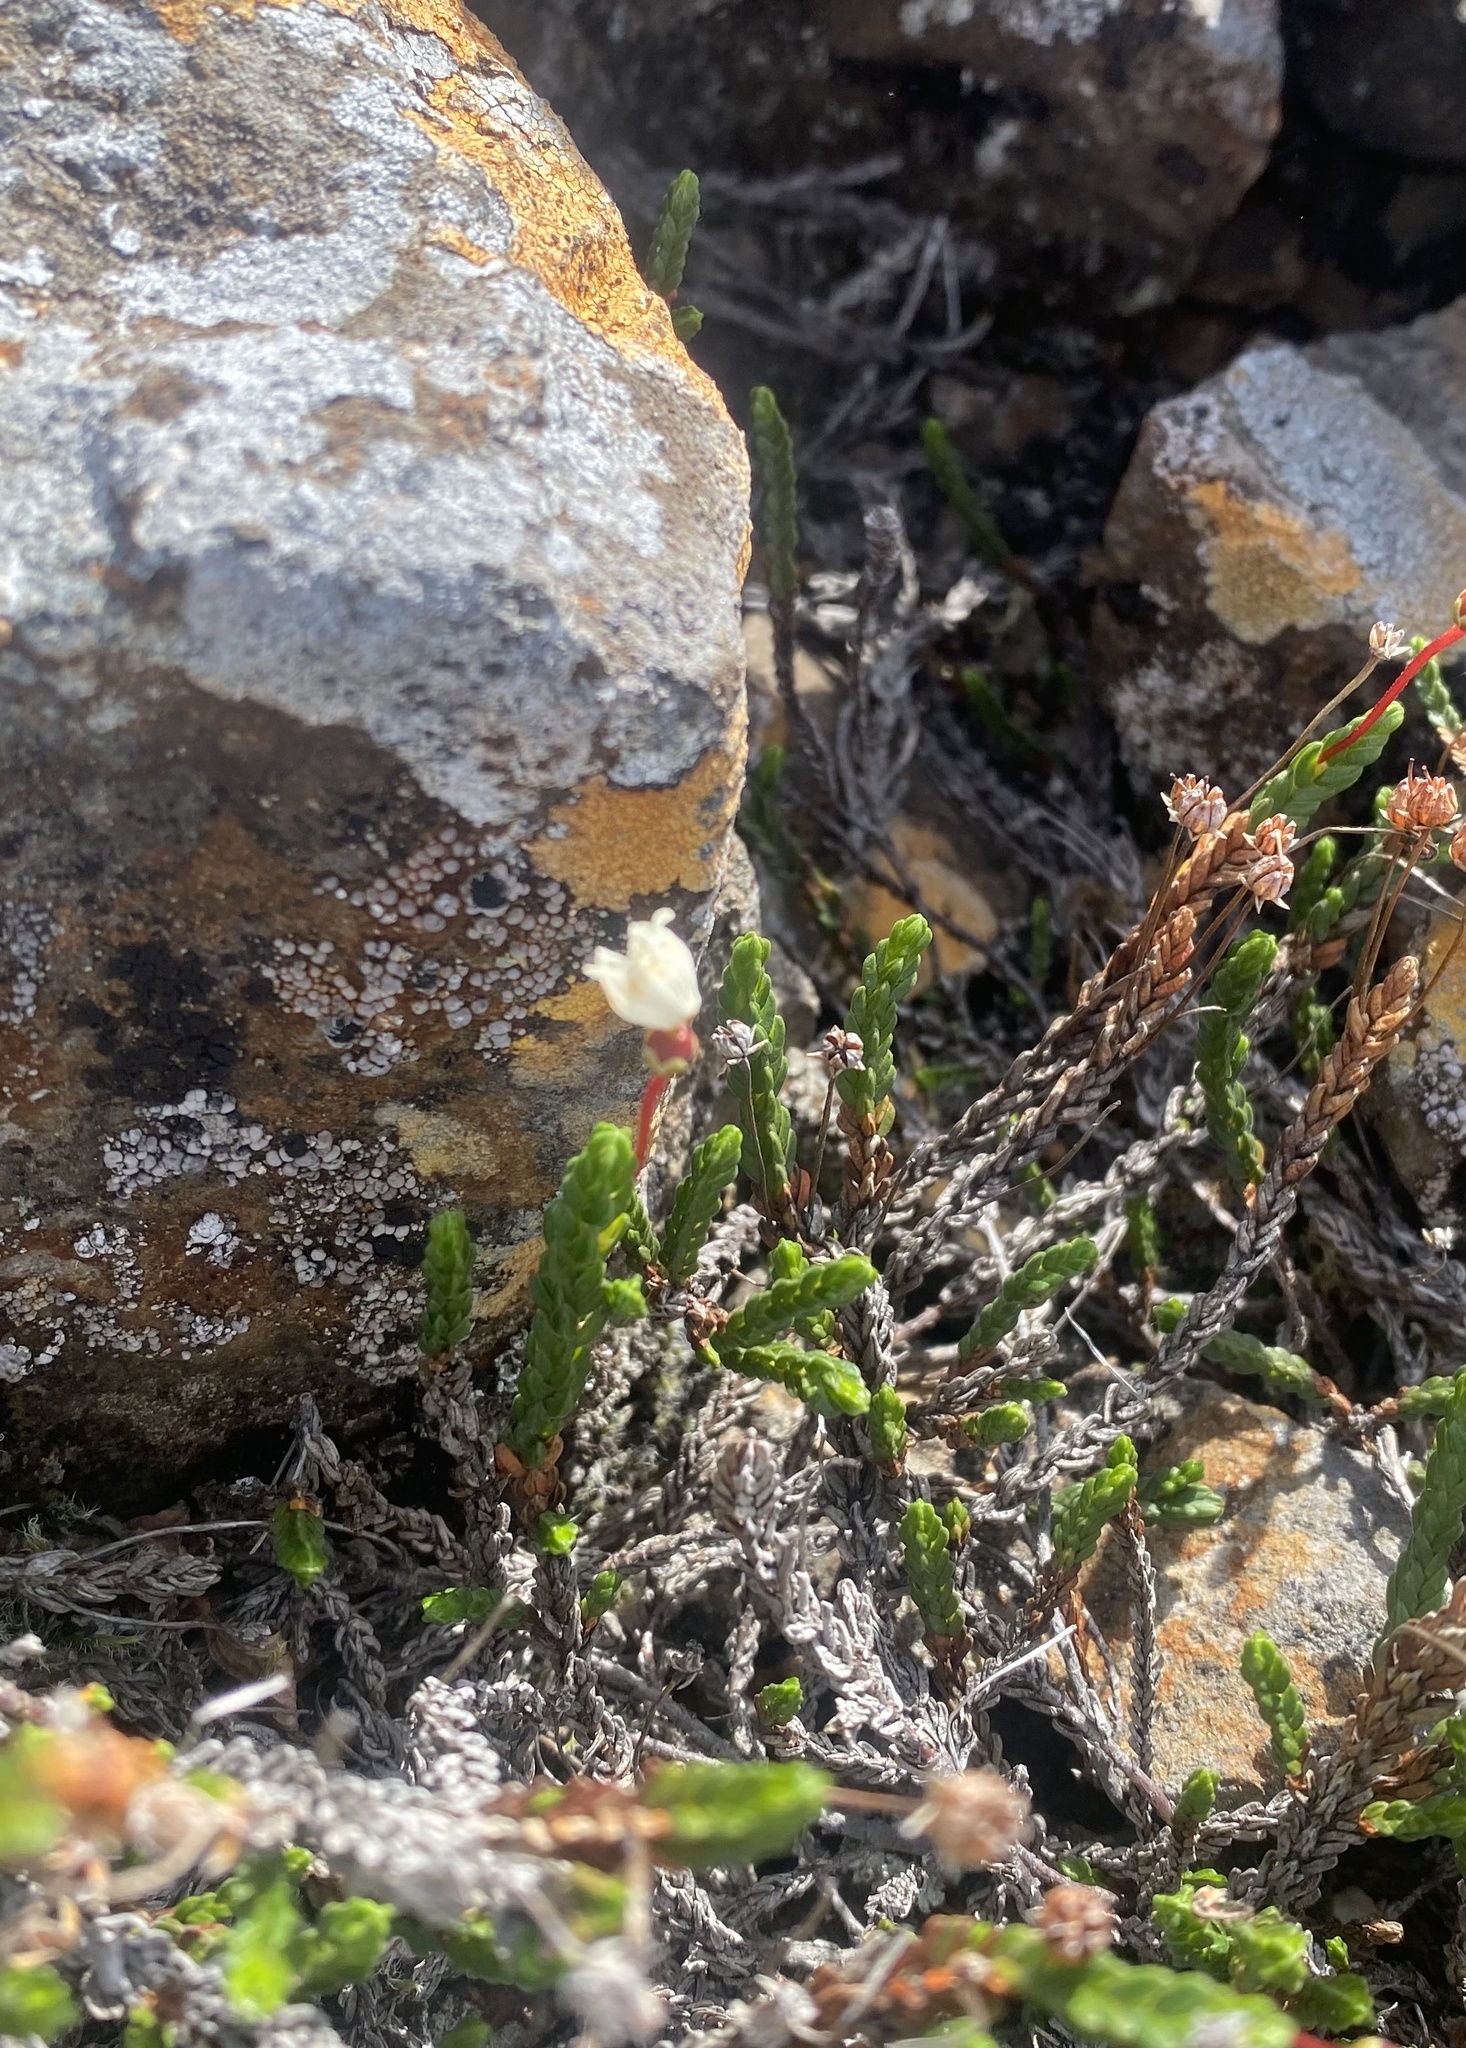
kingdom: Plantae
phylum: Tracheophyta
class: Magnoliopsida
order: Ericales
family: Ericaceae
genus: Cassiope
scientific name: Cassiope tetragona
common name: Arctic bell heather
